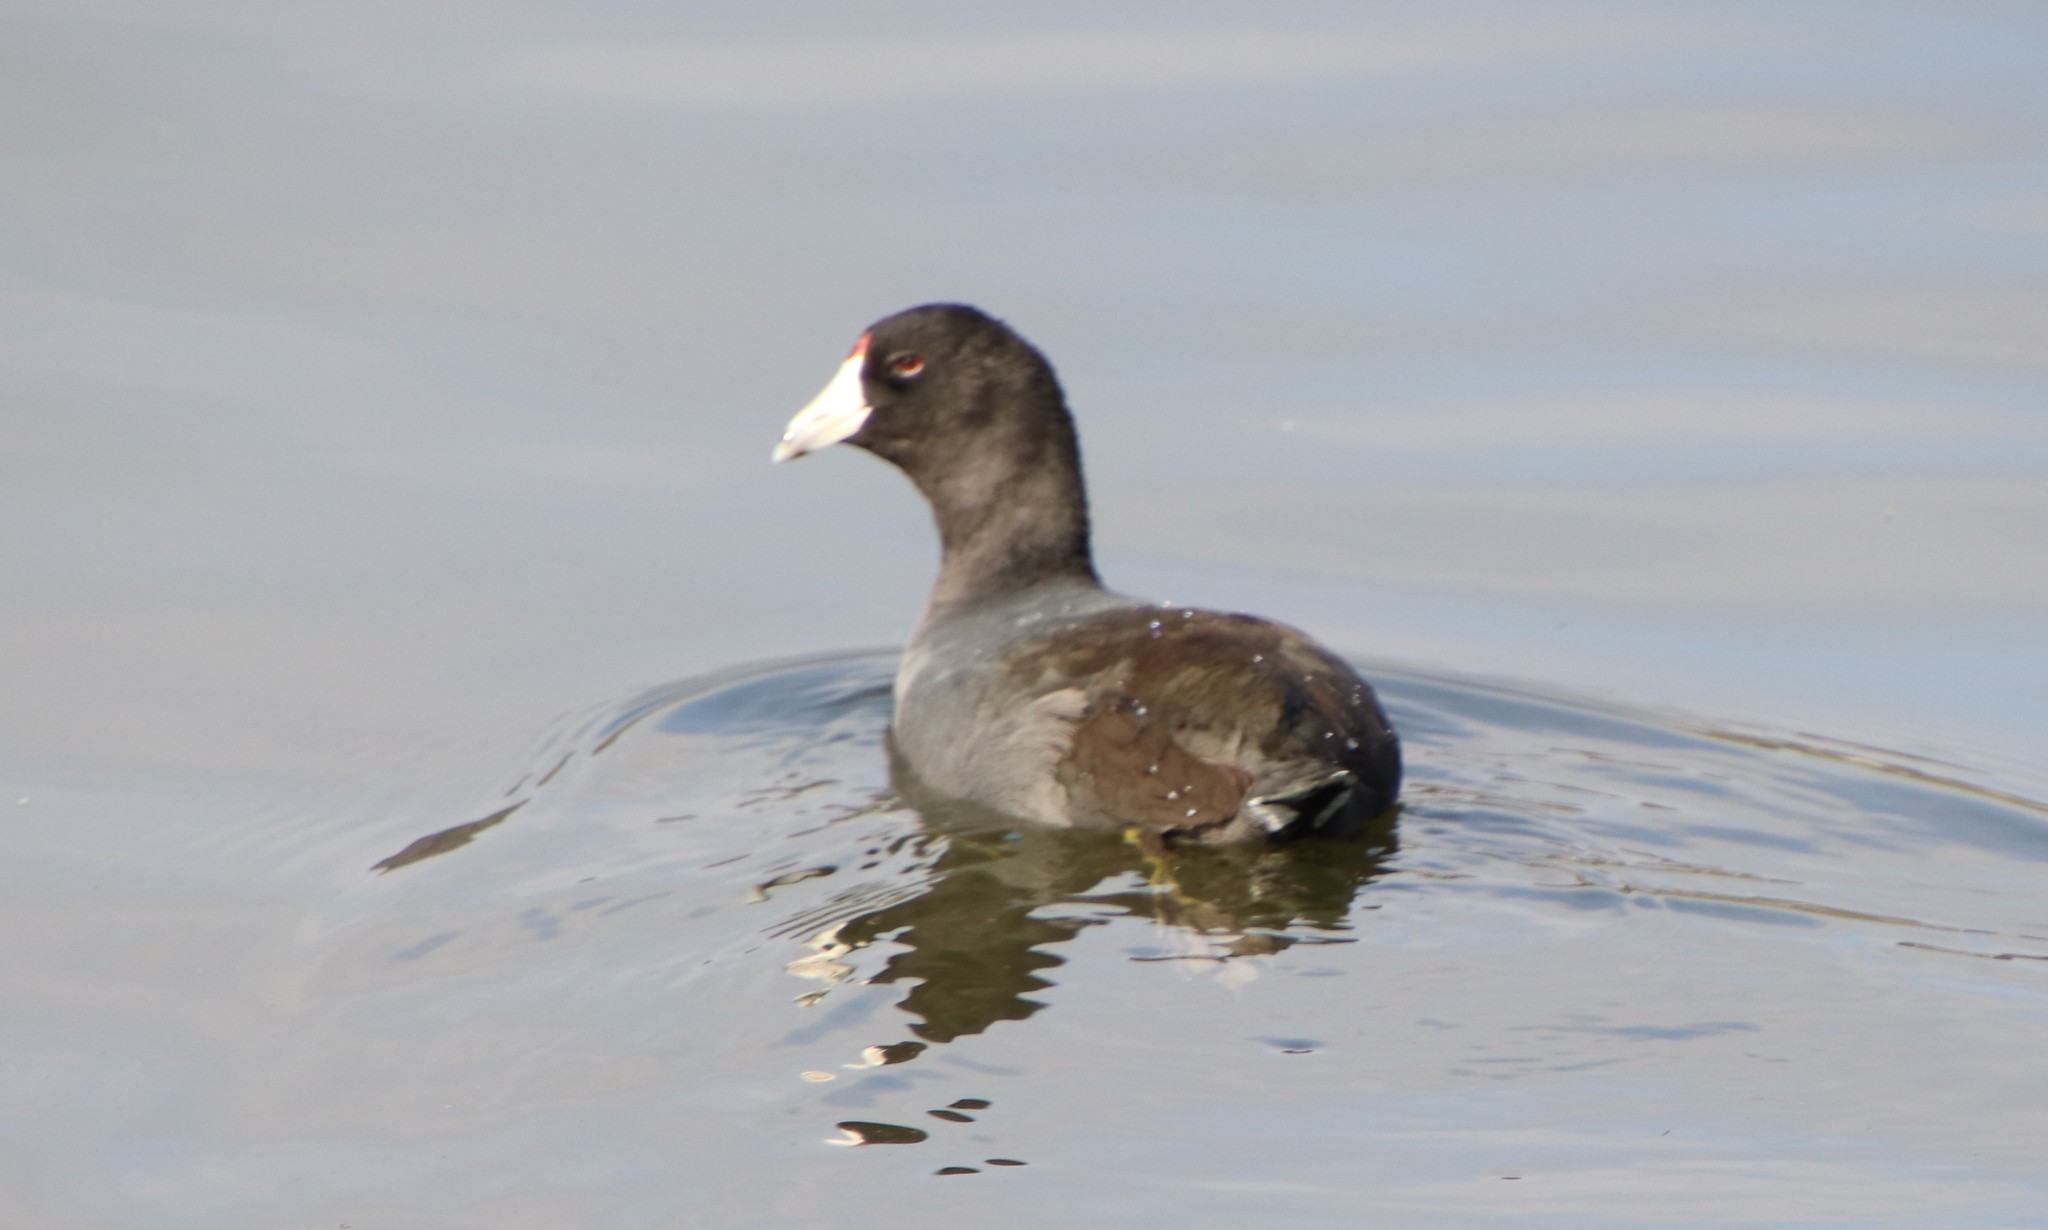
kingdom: Animalia
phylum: Chordata
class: Aves
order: Gruiformes
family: Rallidae
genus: Fulica
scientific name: Fulica americana
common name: American coot
